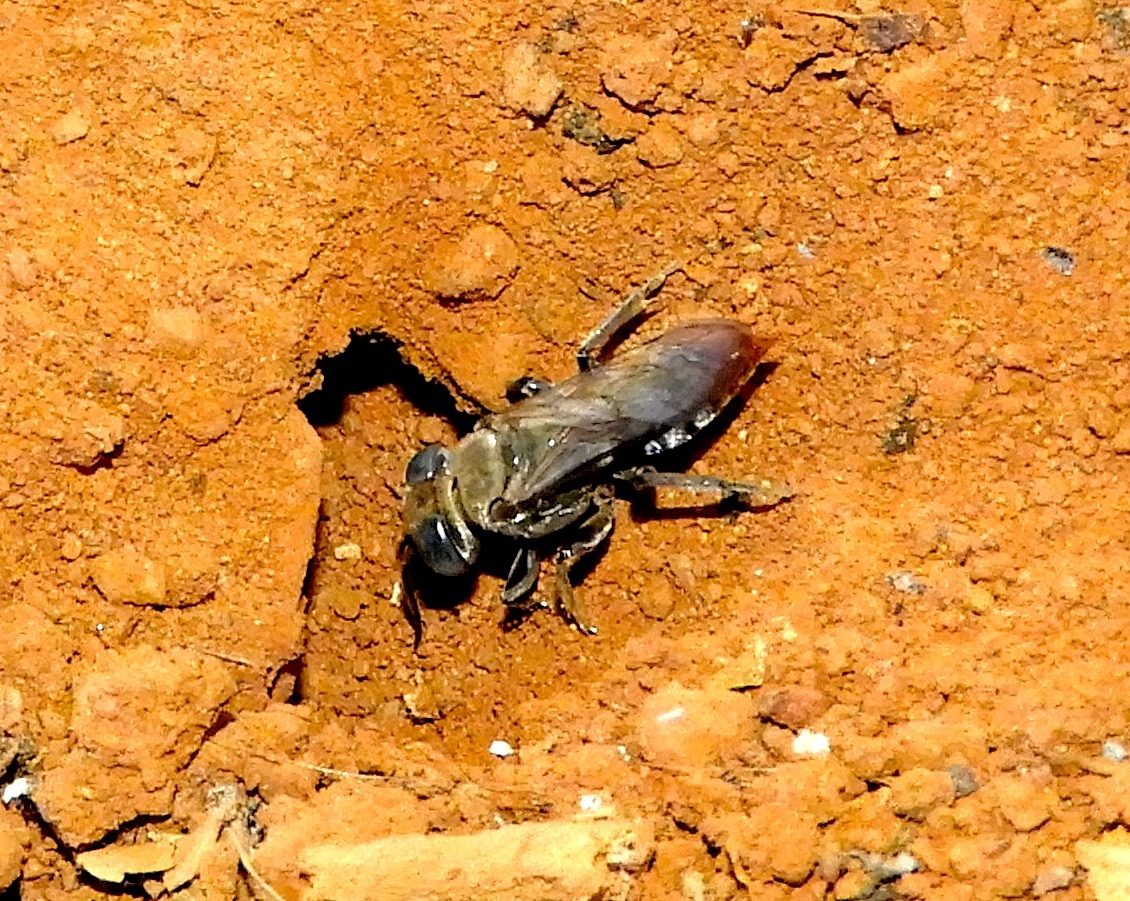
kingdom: Animalia
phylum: Arthropoda
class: Insecta
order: Hymenoptera
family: Crabronidae
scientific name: Crabronidae
